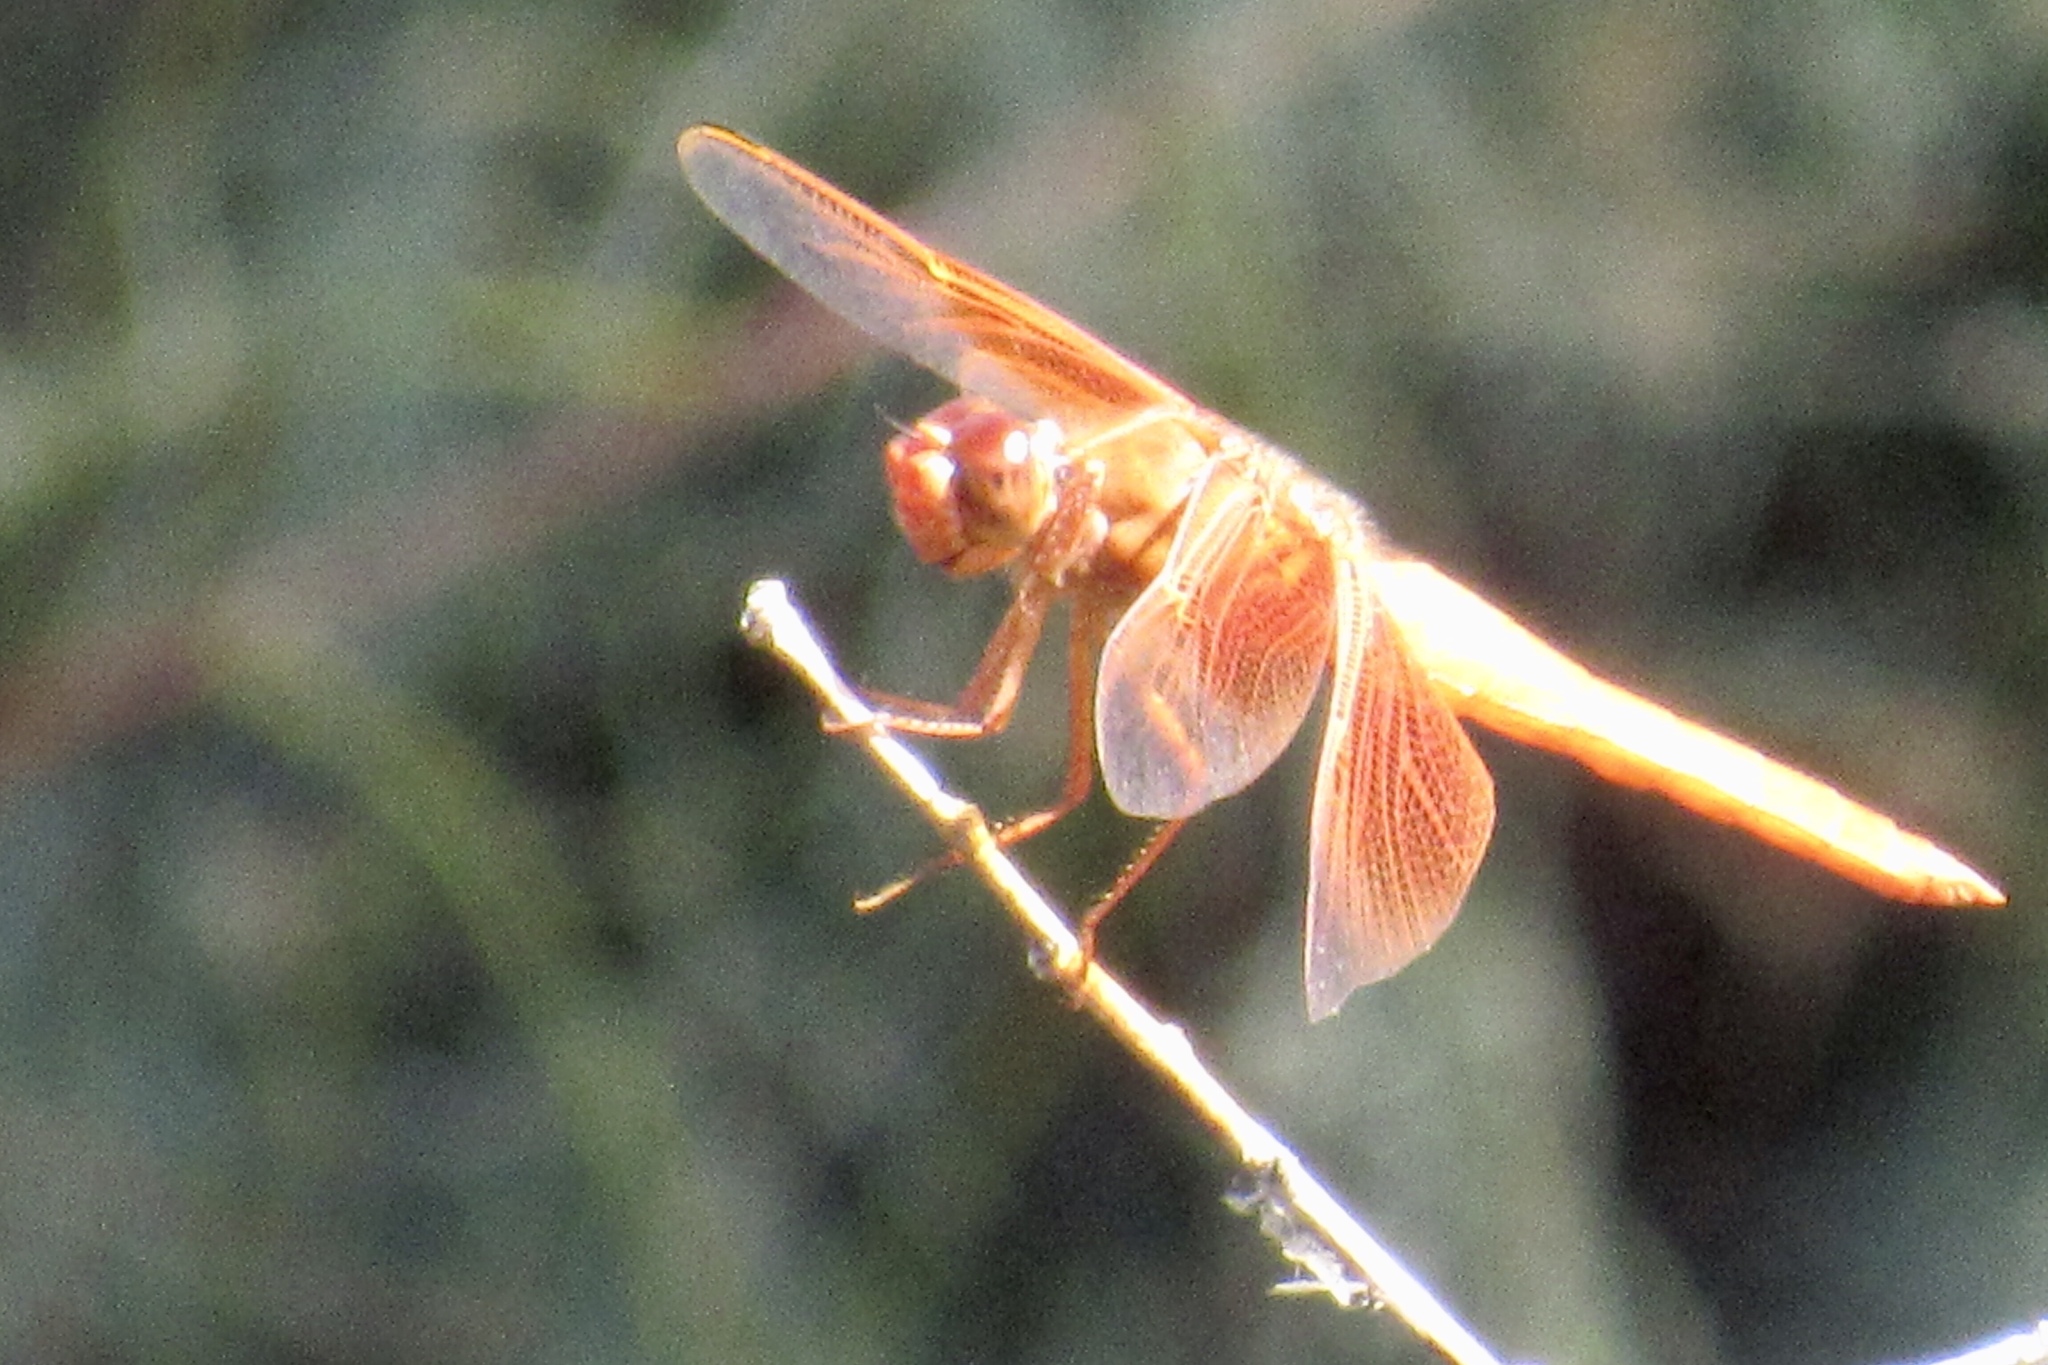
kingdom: Animalia
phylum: Arthropoda
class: Insecta
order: Odonata
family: Libellulidae
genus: Libellula
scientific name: Libellula saturata
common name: Flame skimmer
